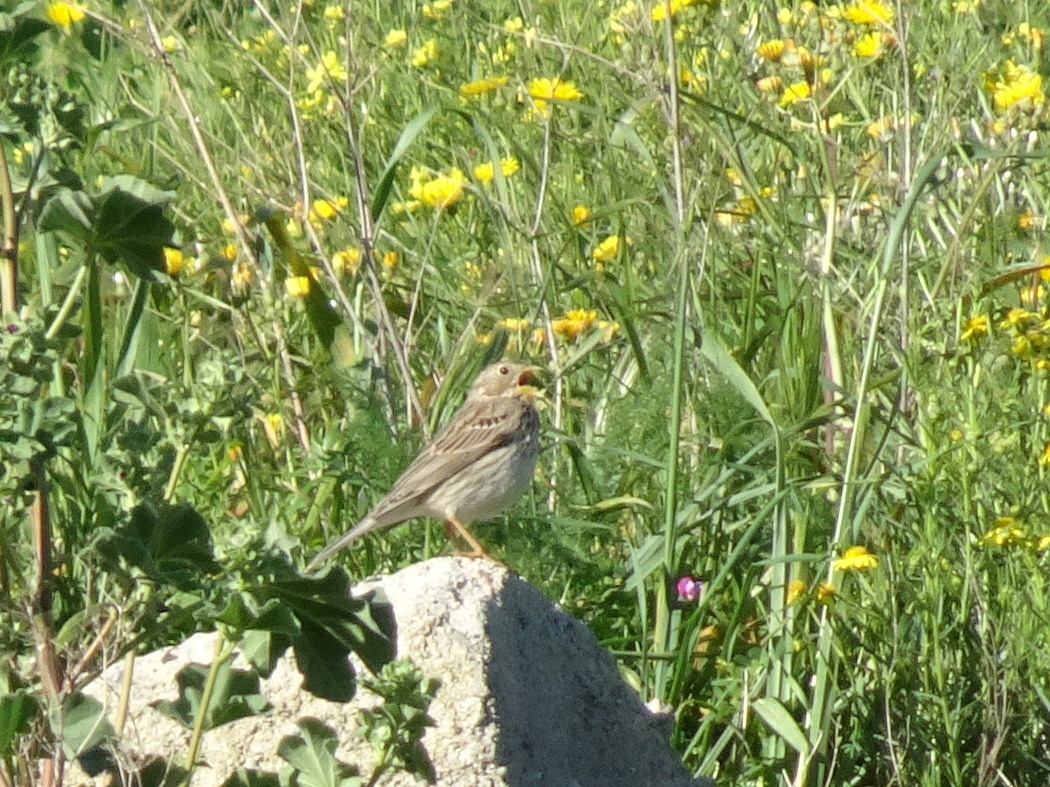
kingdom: Animalia
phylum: Chordata
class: Aves
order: Passeriformes
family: Emberizidae
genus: Emberiza
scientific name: Emberiza calandra
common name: Corn bunting
